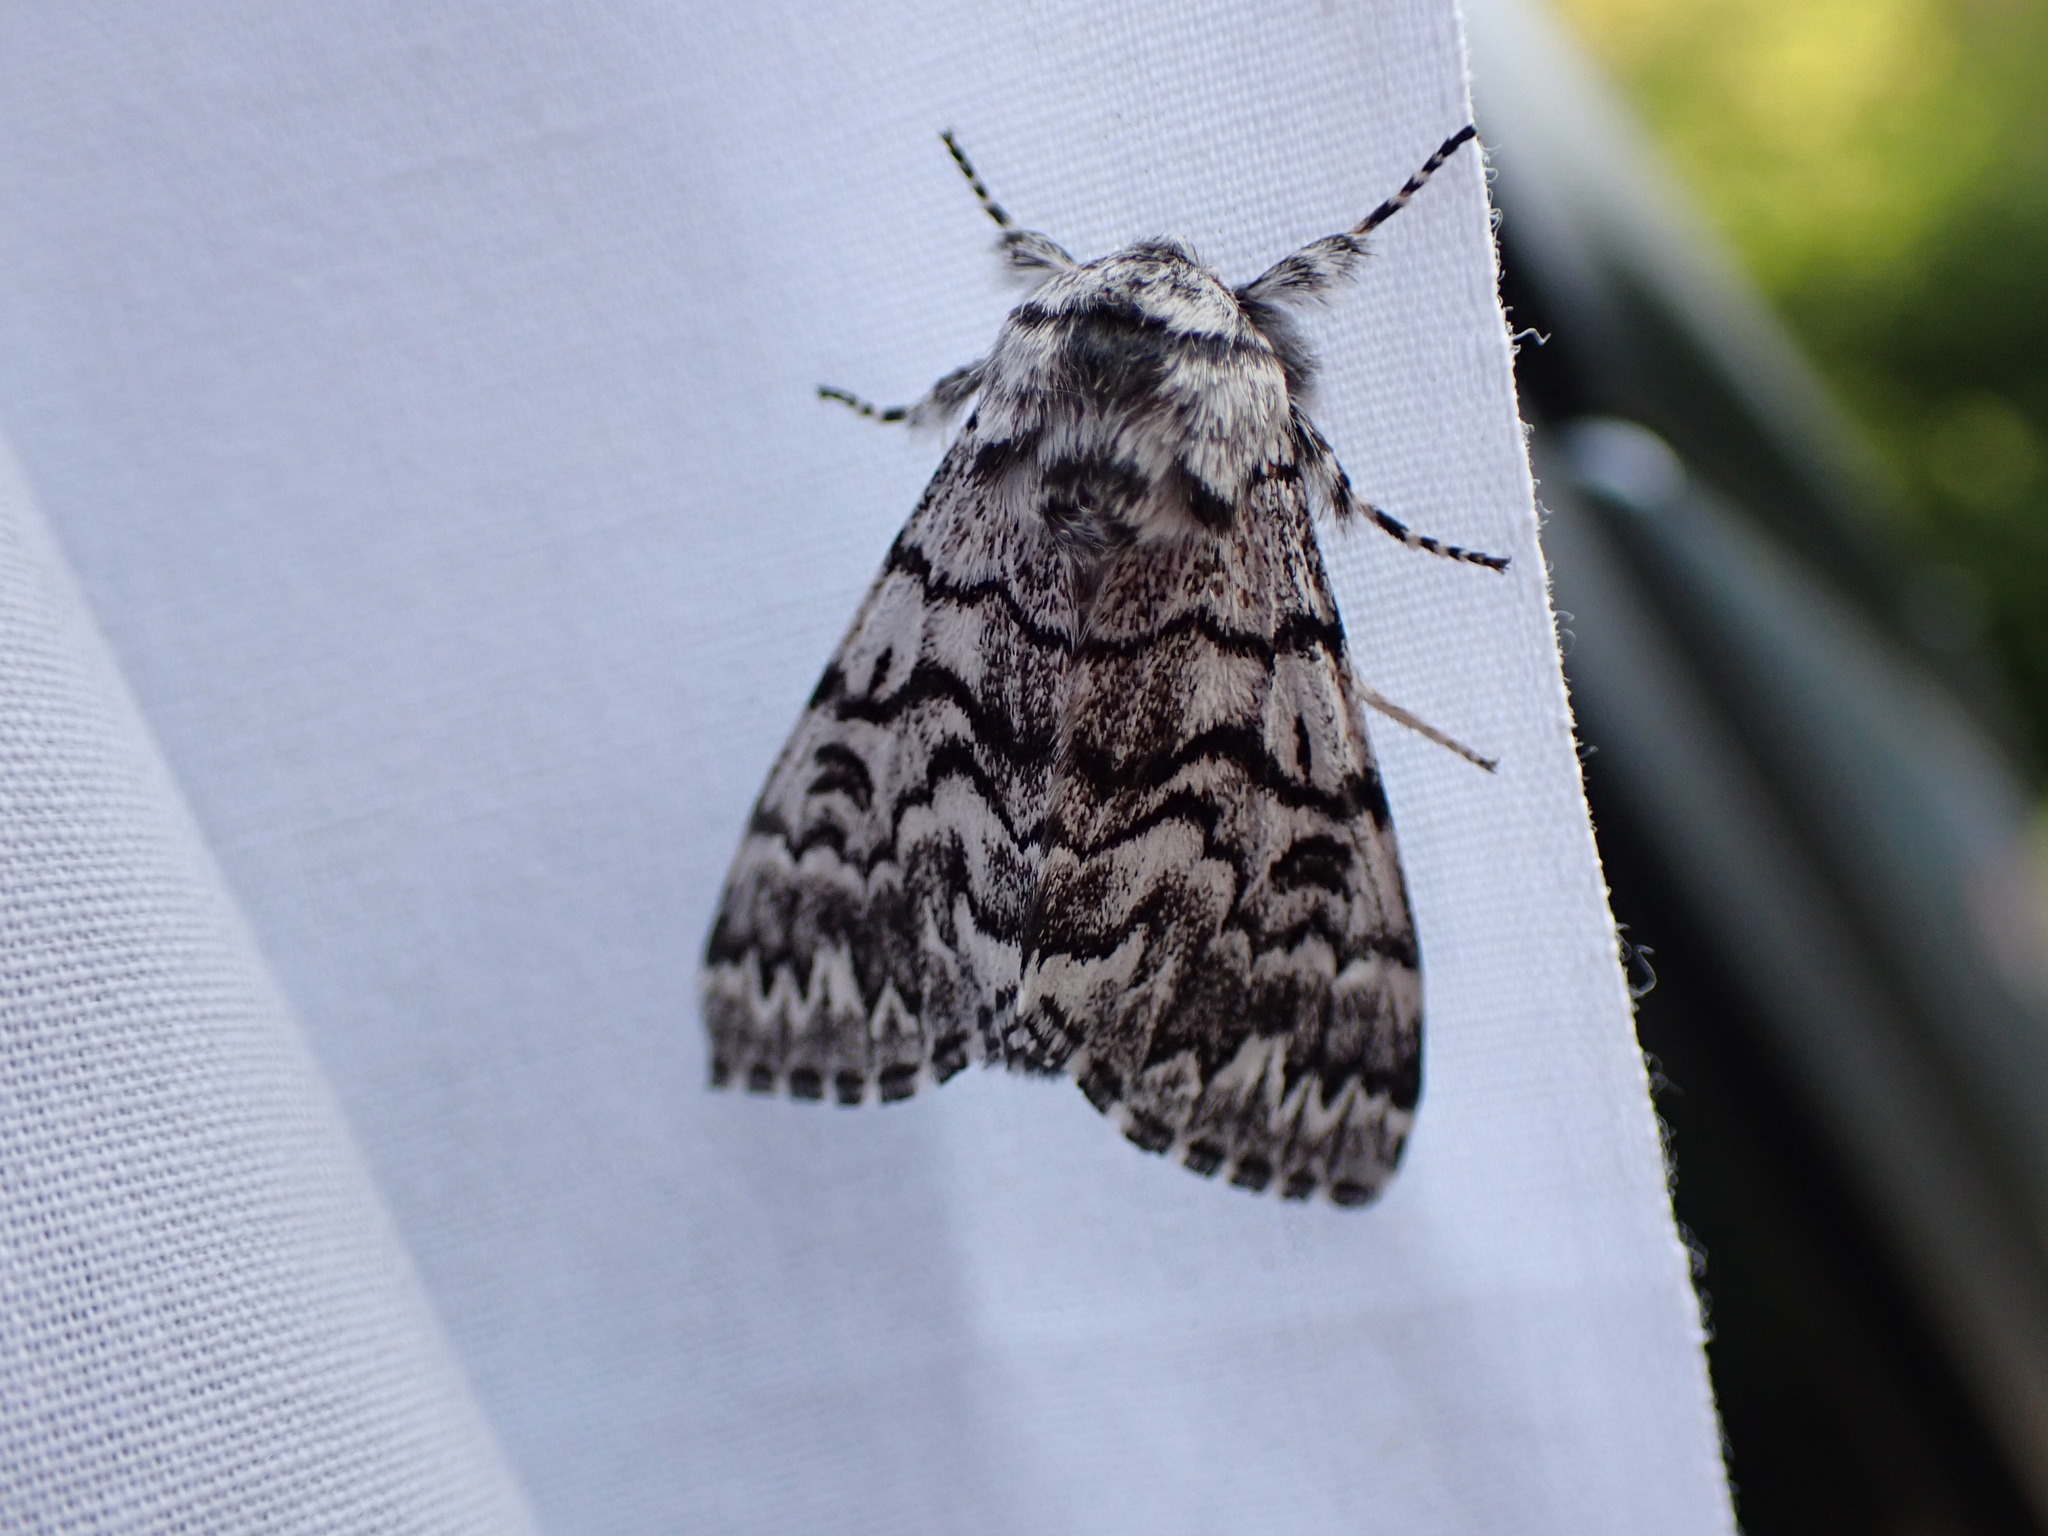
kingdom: Animalia
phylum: Arthropoda
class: Insecta
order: Lepidoptera
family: Noctuidae
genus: Panthea
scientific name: Panthea virginarius
